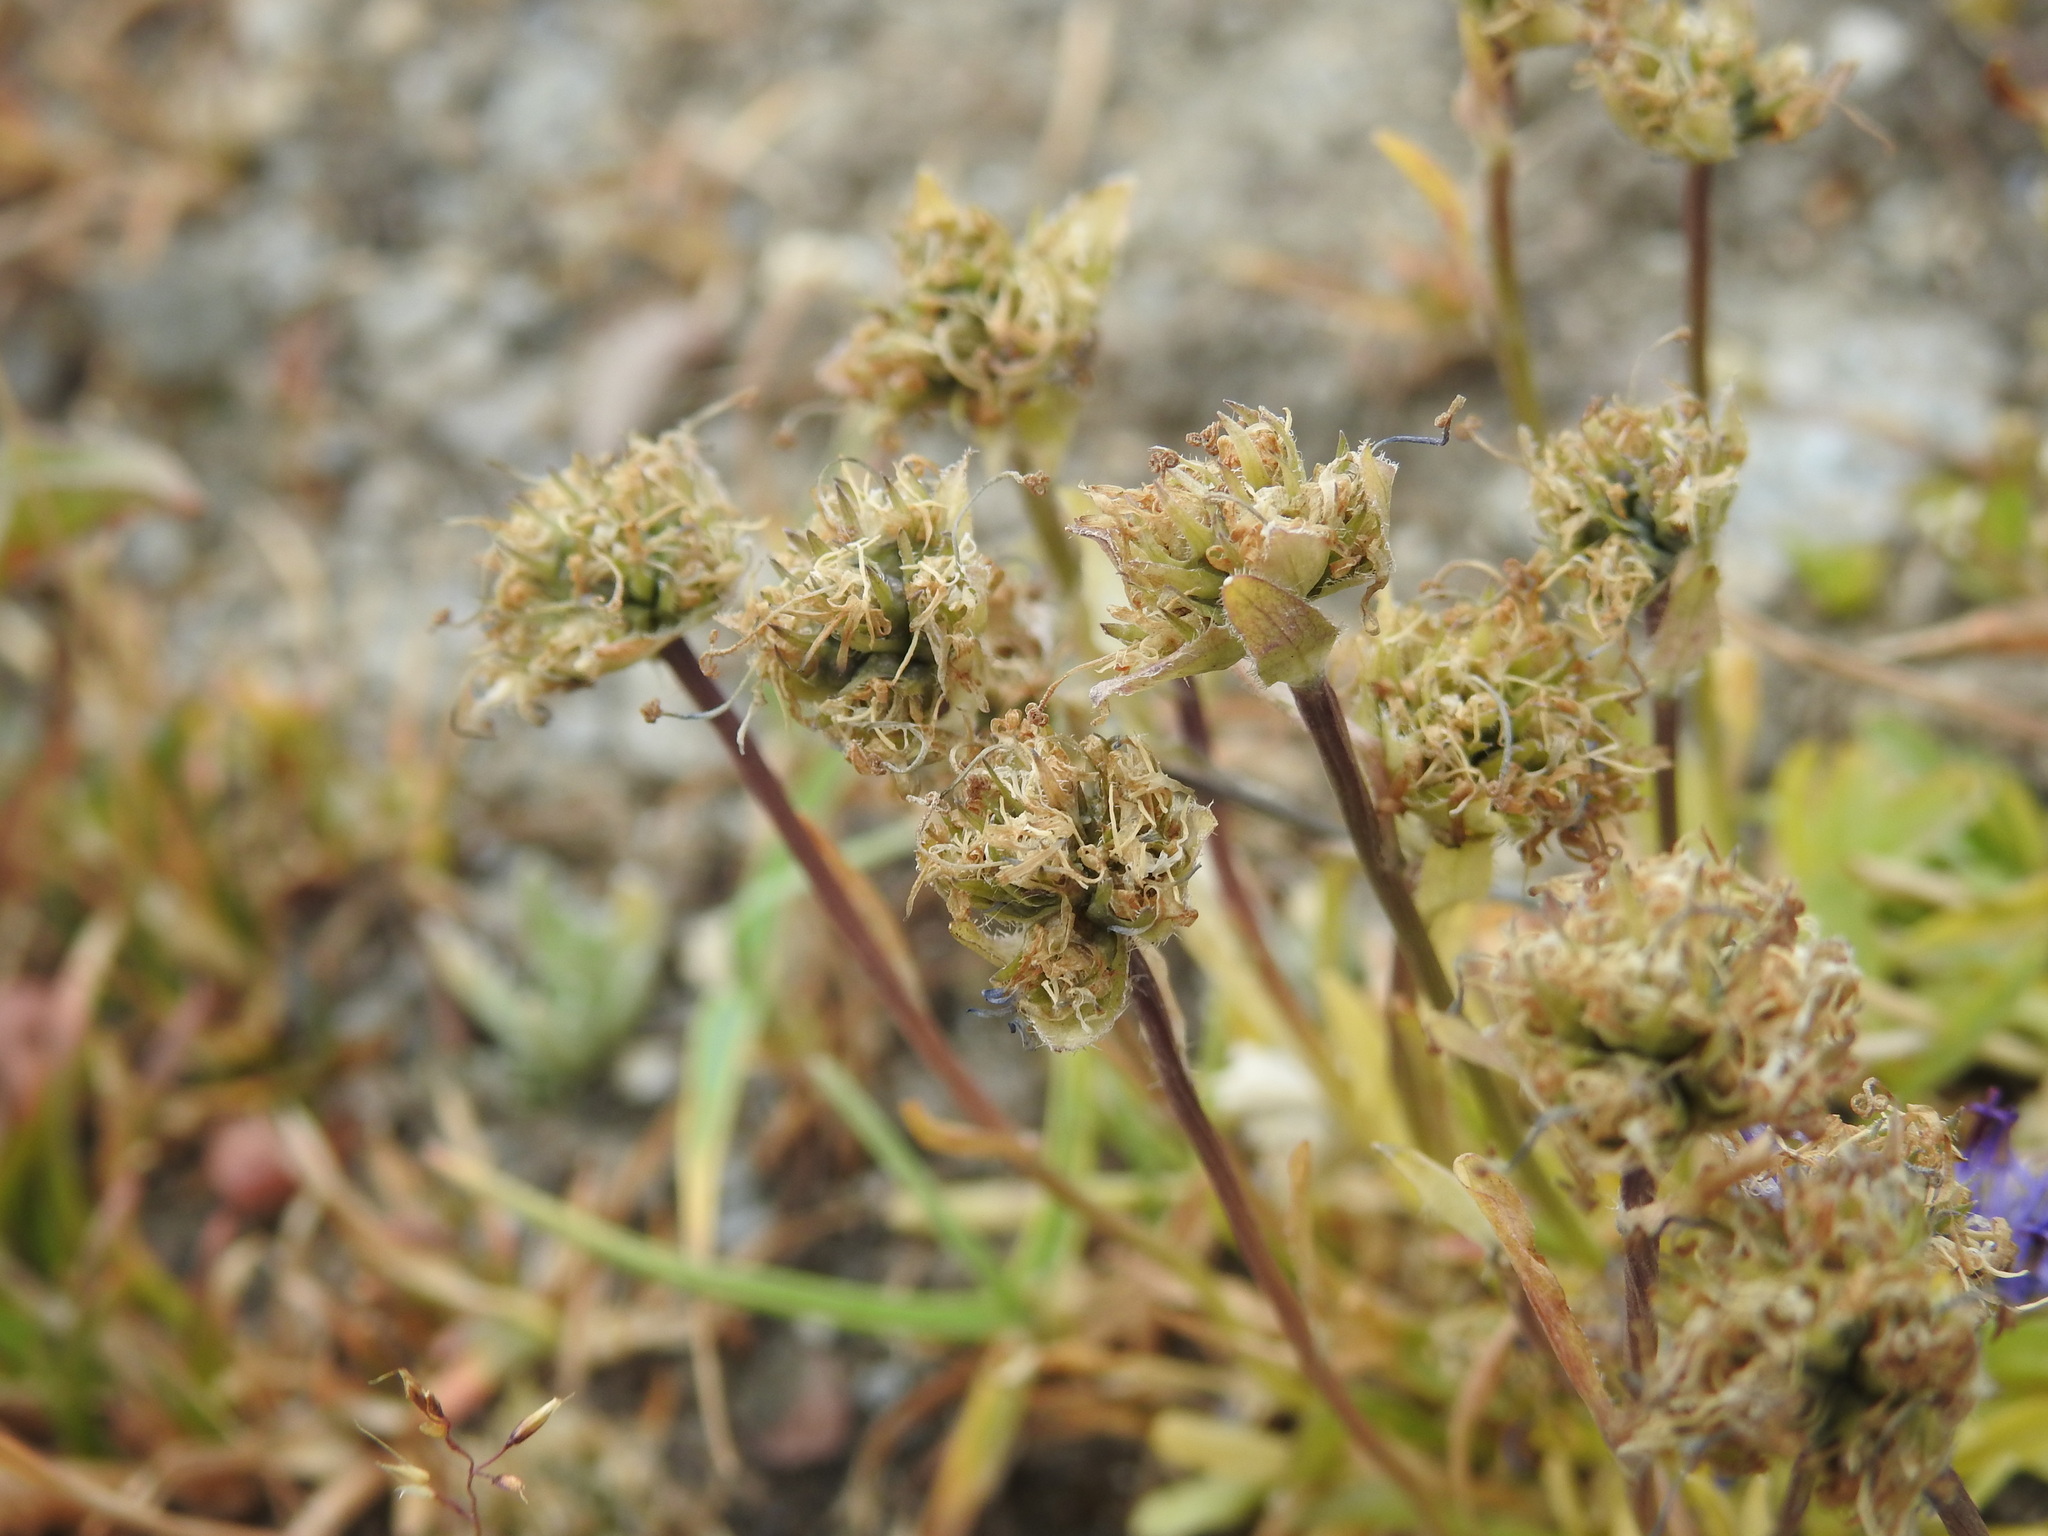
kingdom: Plantae
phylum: Tracheophyta
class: Magnoliopsida
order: Asterales
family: Campanulaceae
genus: Phyteuma
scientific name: Phyteuma globulariifolium
